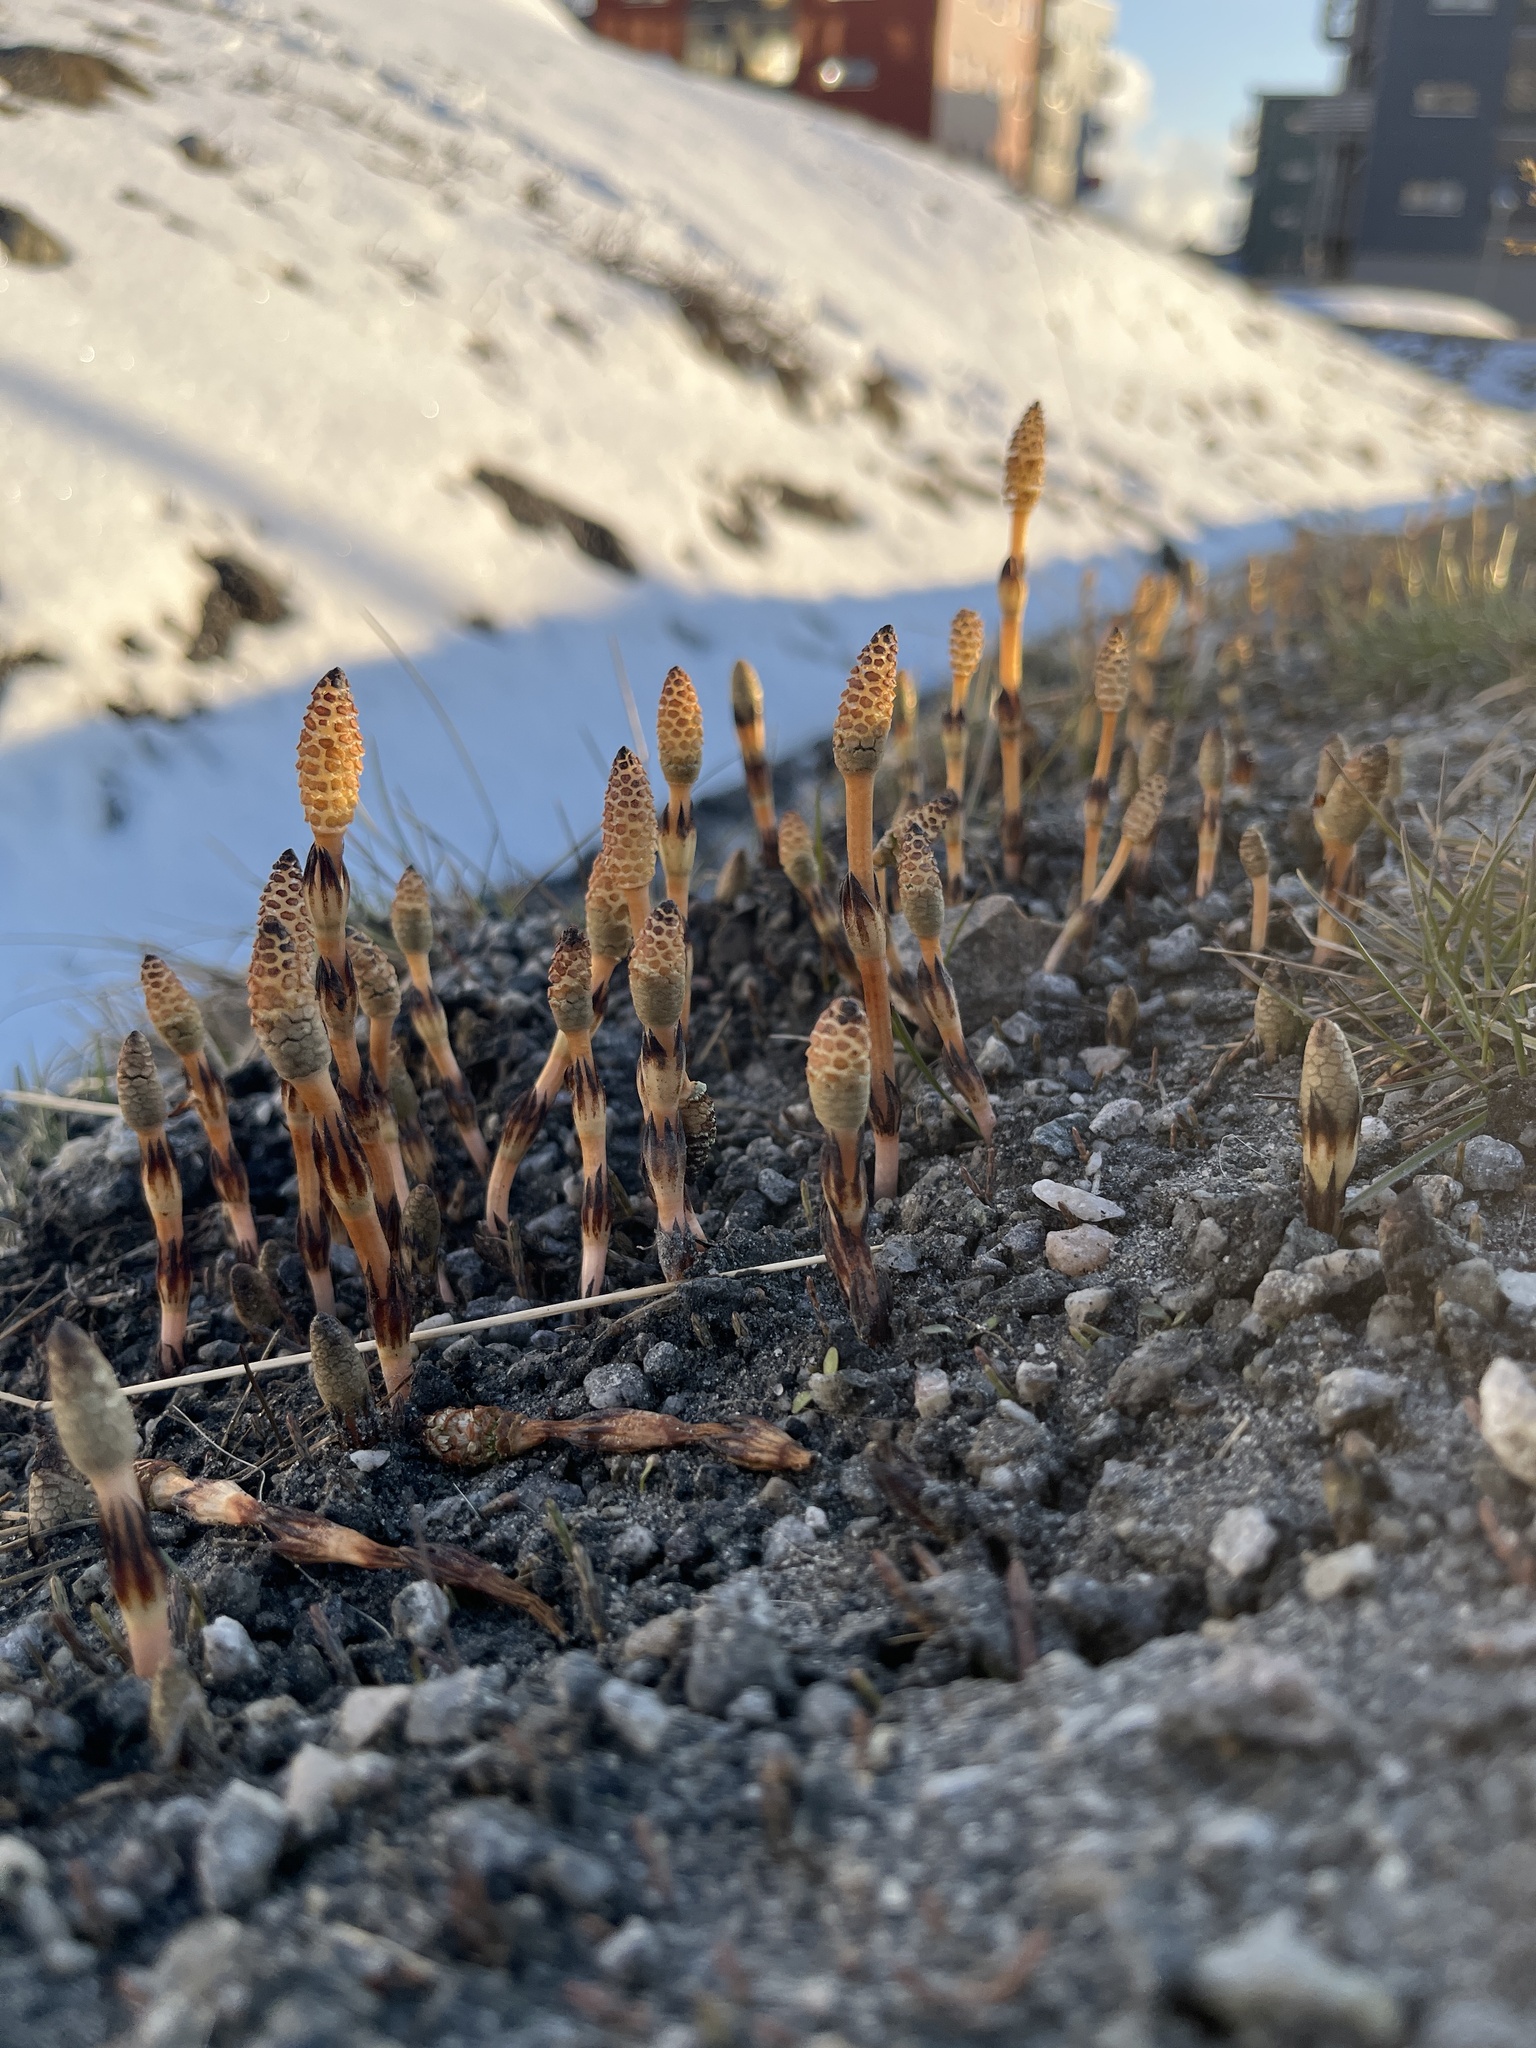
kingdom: Plantae
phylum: Tracheophyta
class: Polypodiopsida
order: Equisetales
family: Equisetaceae
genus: Equisetum
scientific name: Equisetum arvense
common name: Field horsetail
